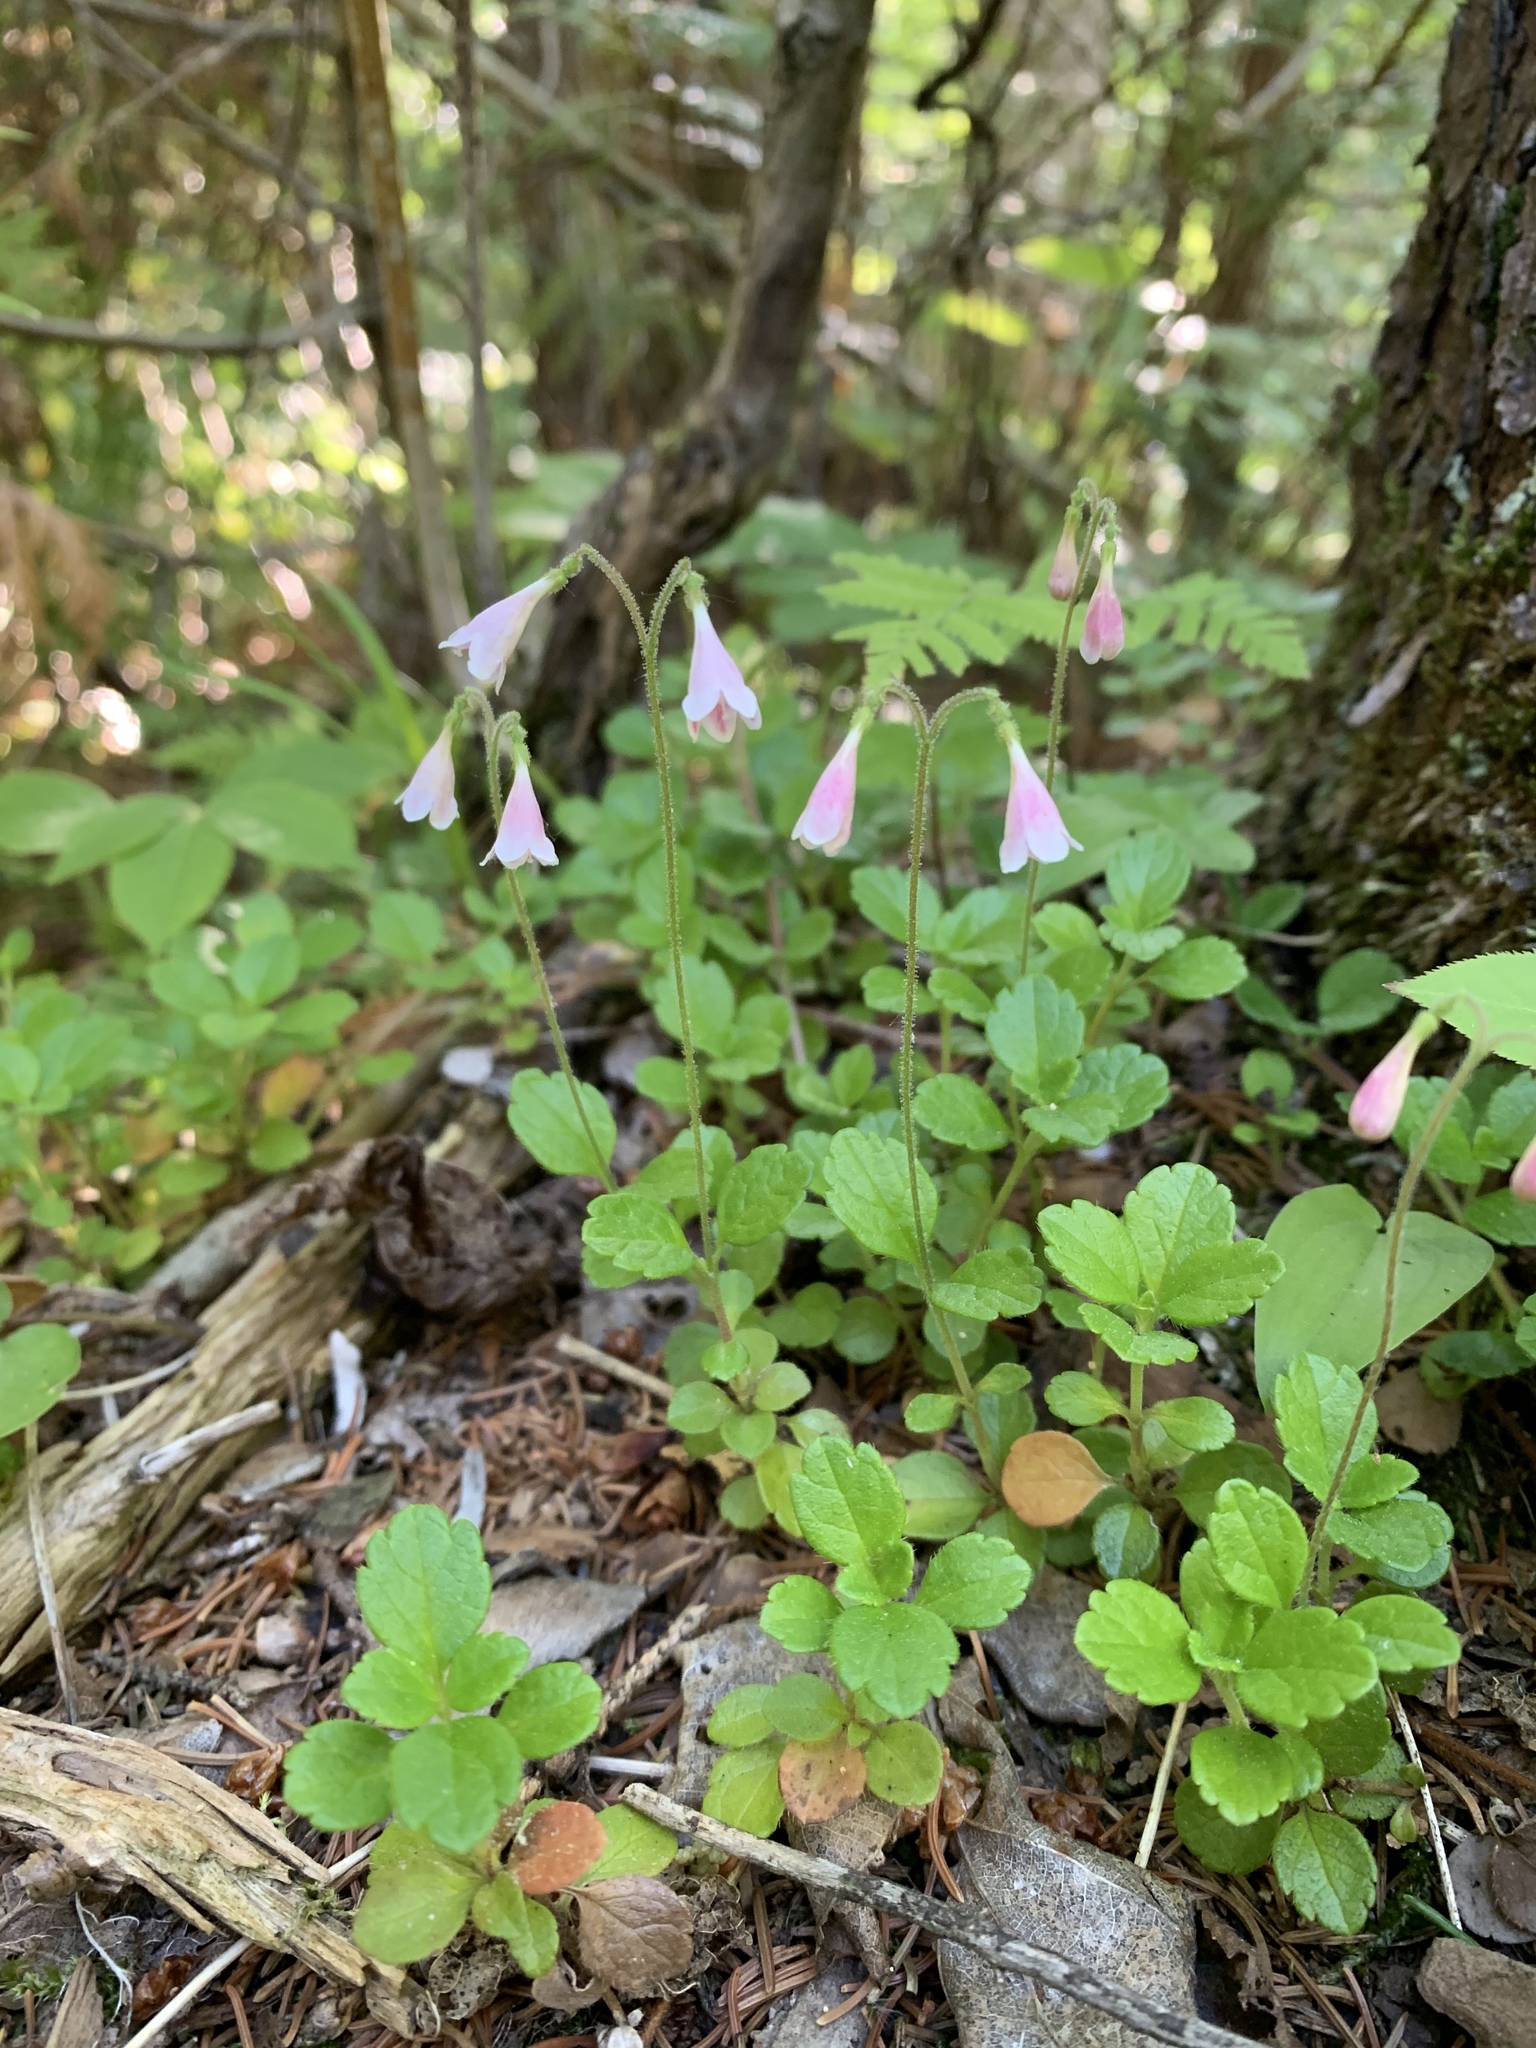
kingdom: Plantae
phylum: Tracheophyta
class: Magnoliopsida
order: Dipsacales
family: Caprifoliaceae
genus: Linnaea
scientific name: Linnaea borealis
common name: Twinflower
